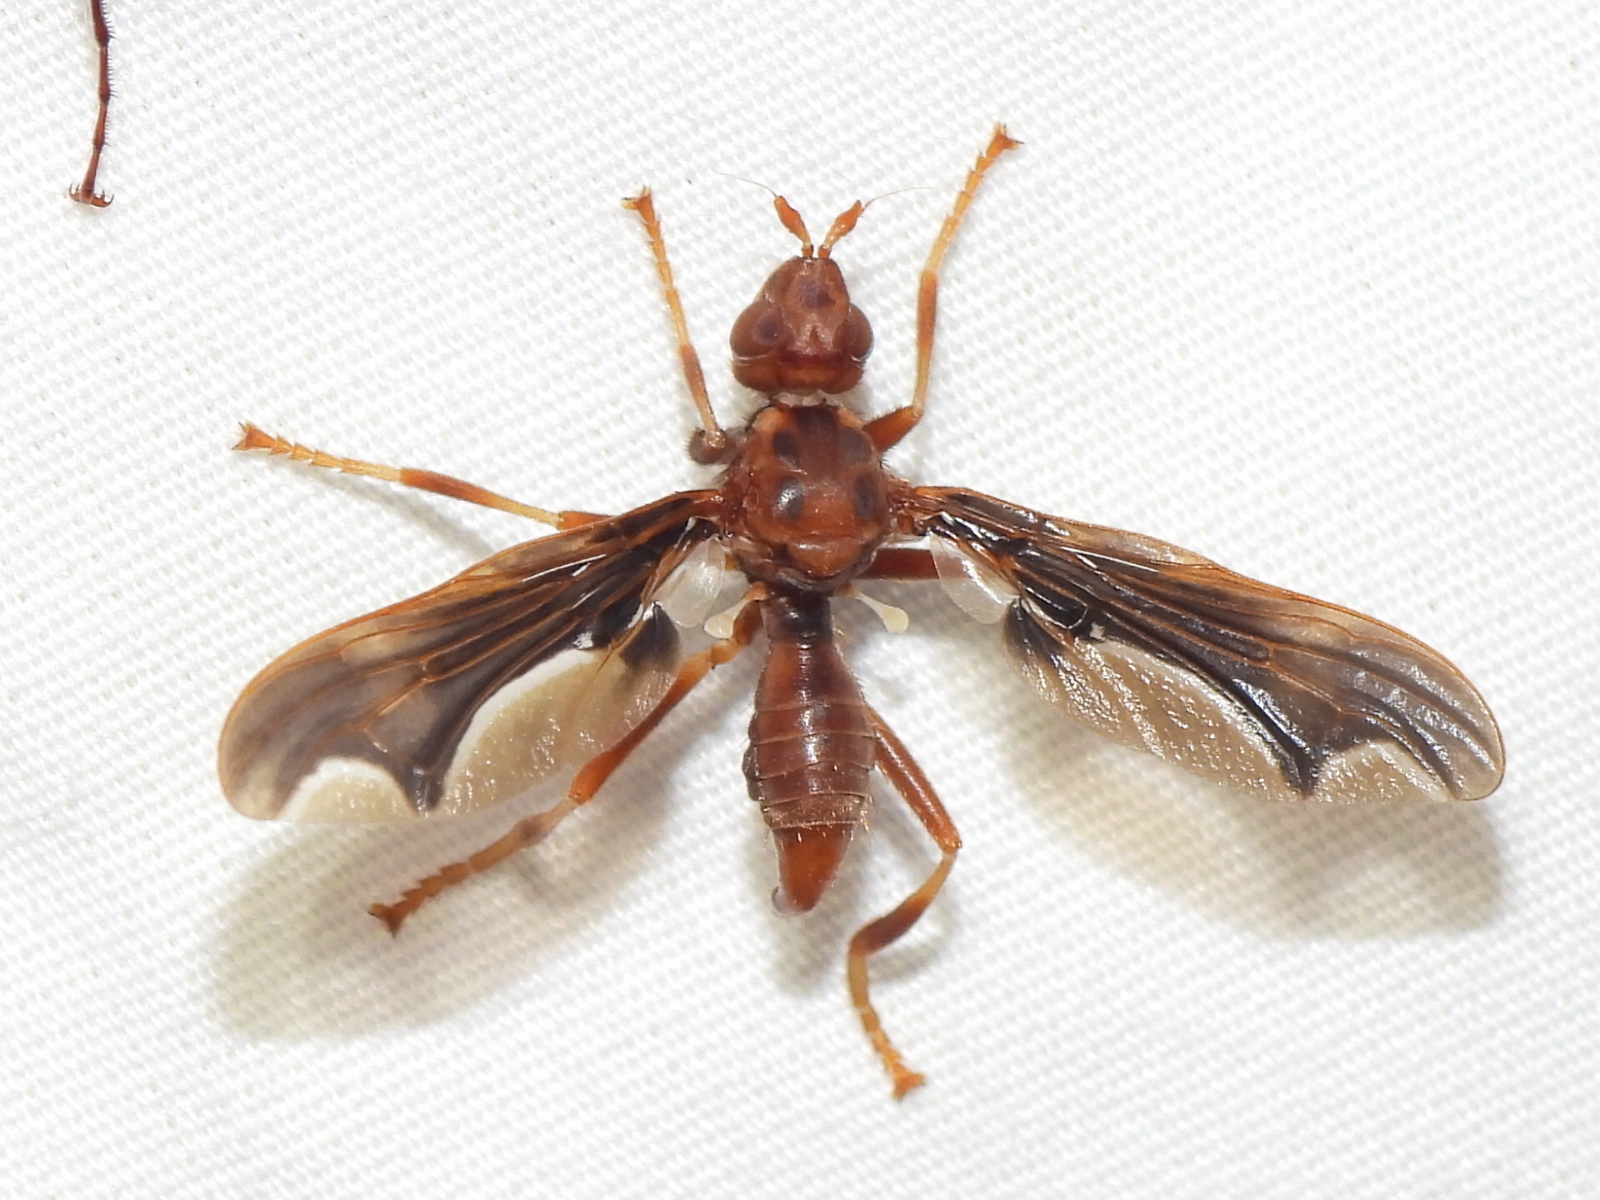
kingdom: Animalia
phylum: Arthropoda
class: Insecta
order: Diptera
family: Pyrgotidae
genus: Pyrgota
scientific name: Pyrgota undata
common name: Waved light fly
